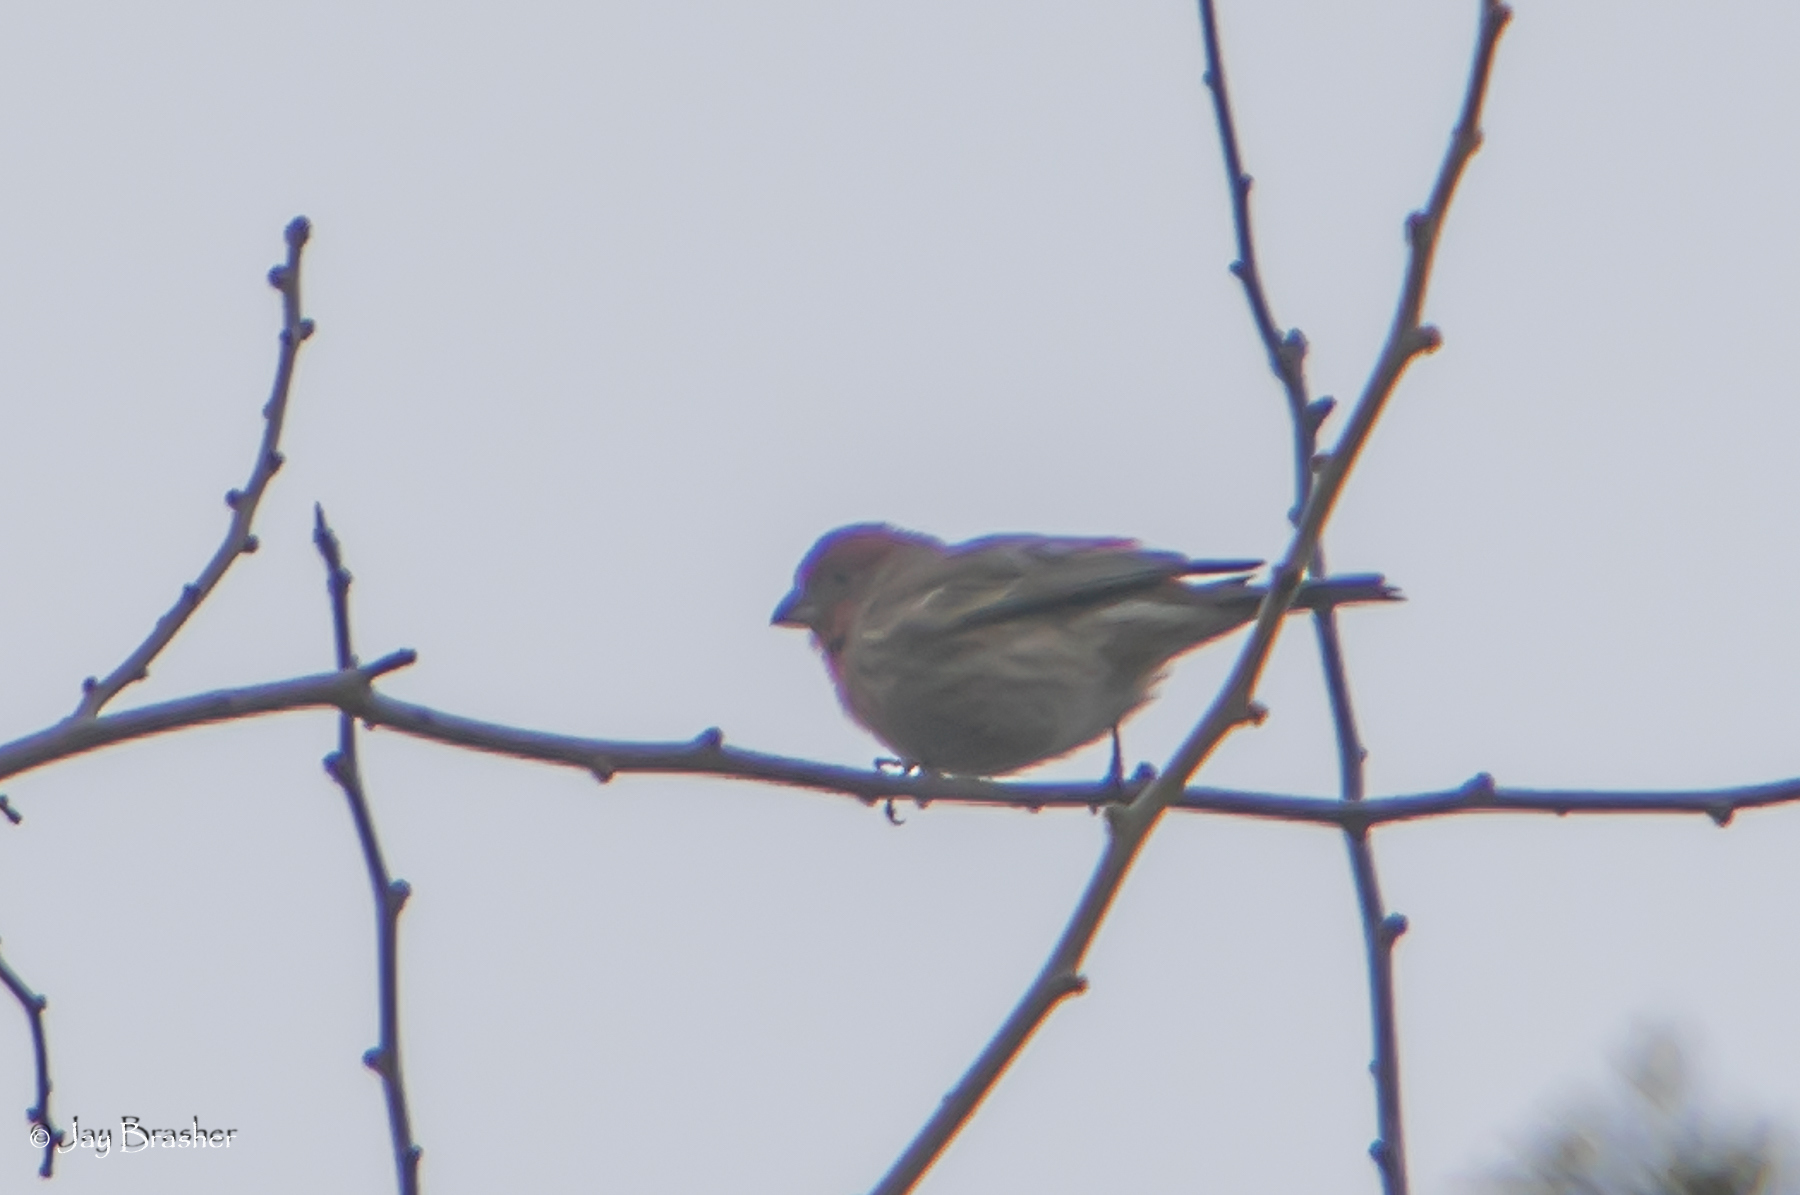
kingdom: Animalia
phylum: Chordata
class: Aves
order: Passeriformes
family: Fringillidae
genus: Haemorhous
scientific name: Haemorhous mexicanus
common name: House finch
